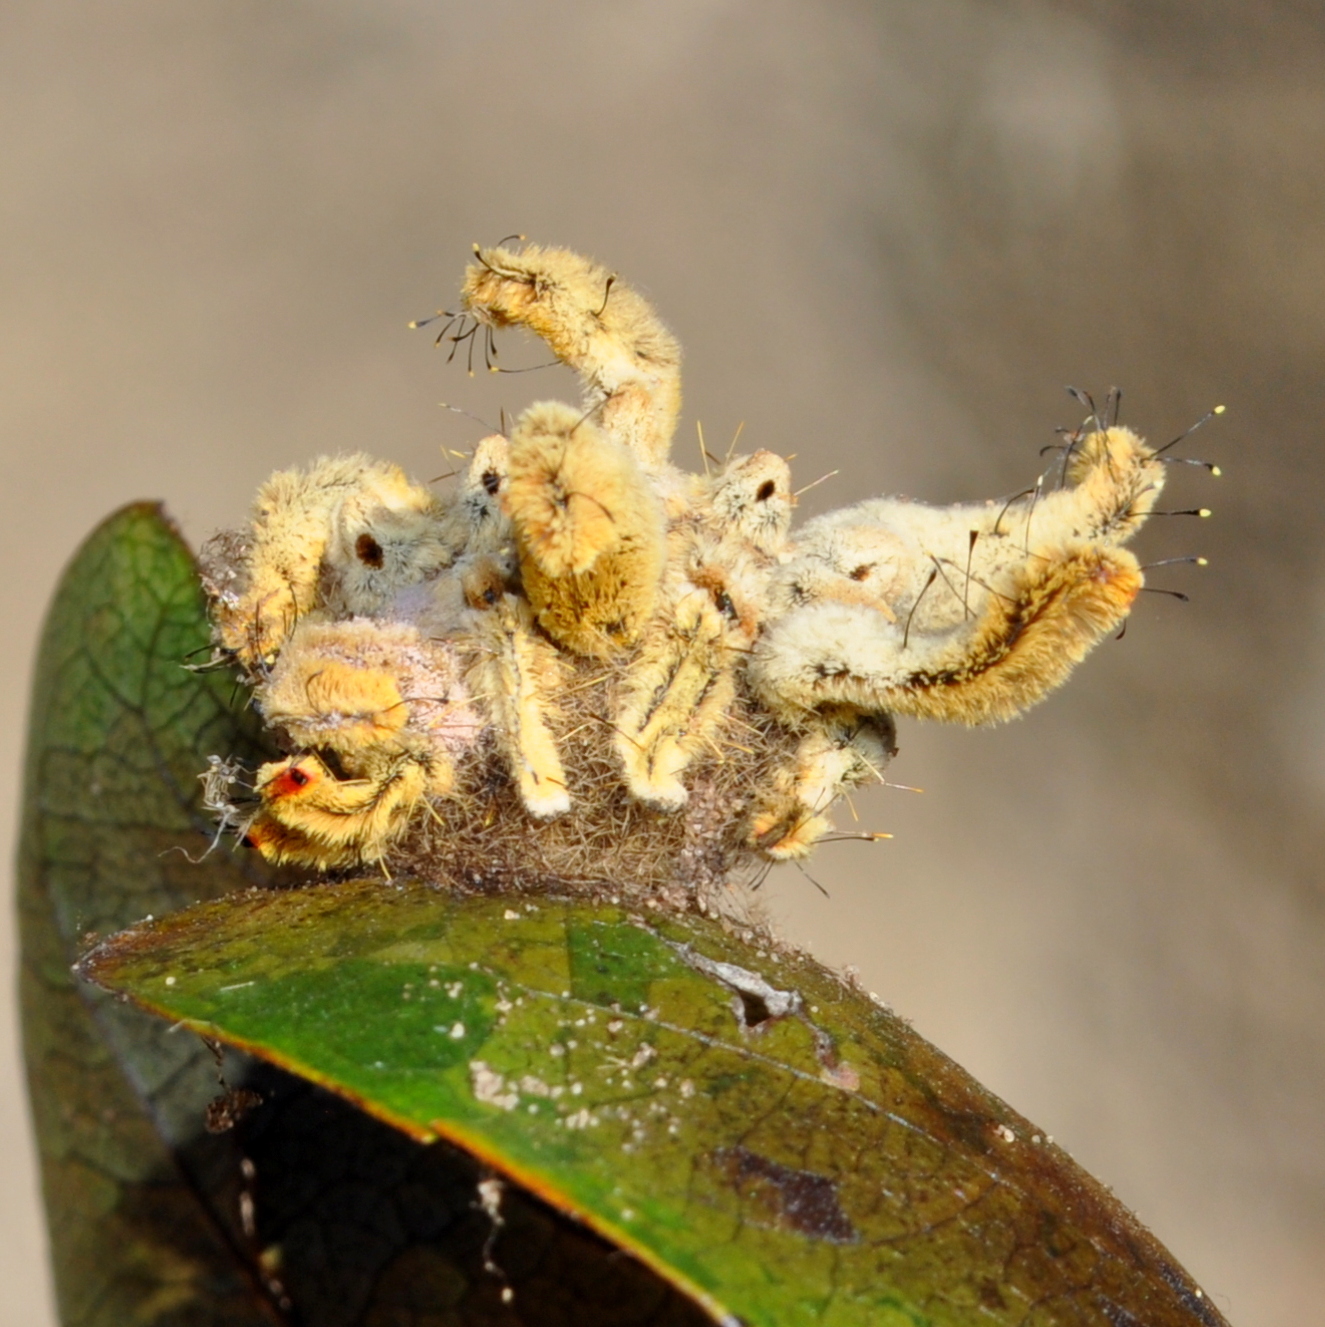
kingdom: Animalia
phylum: Arthropoda
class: Insecta
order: Lepidoptera
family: Limacodidae
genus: Phobetron
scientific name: Phobetron hipparchia
